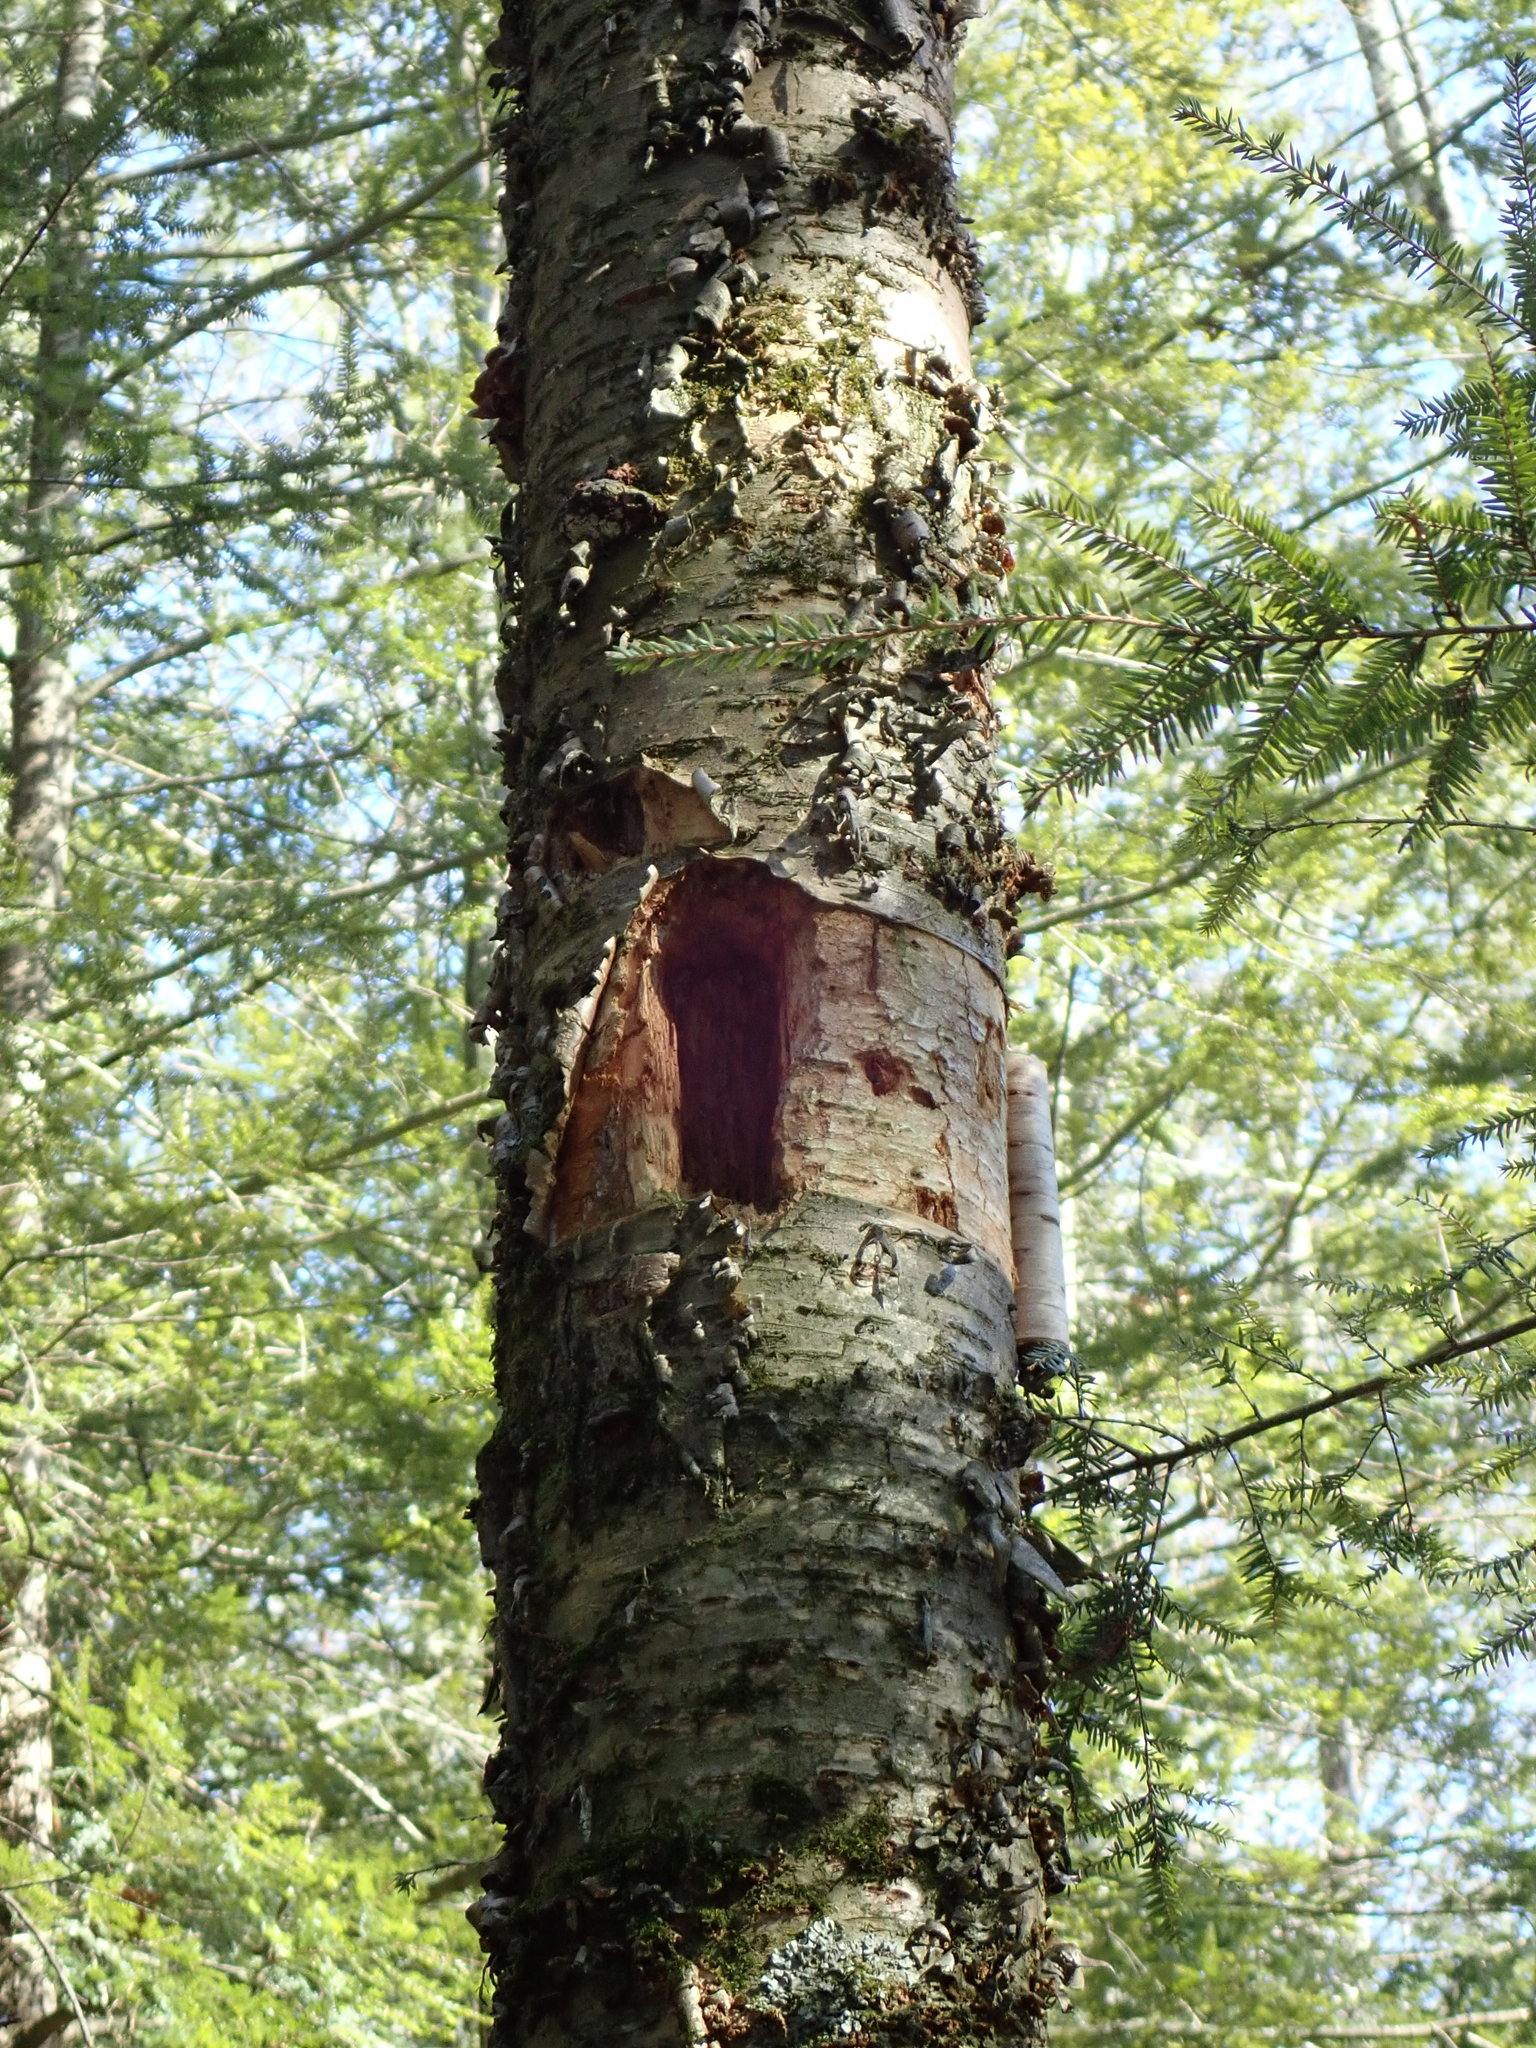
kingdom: Animalia
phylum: Chordata
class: Aves
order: Piciformes
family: Picidae
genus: Dryocopus
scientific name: Dryocopus pileatus
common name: Pileated woodpecker
